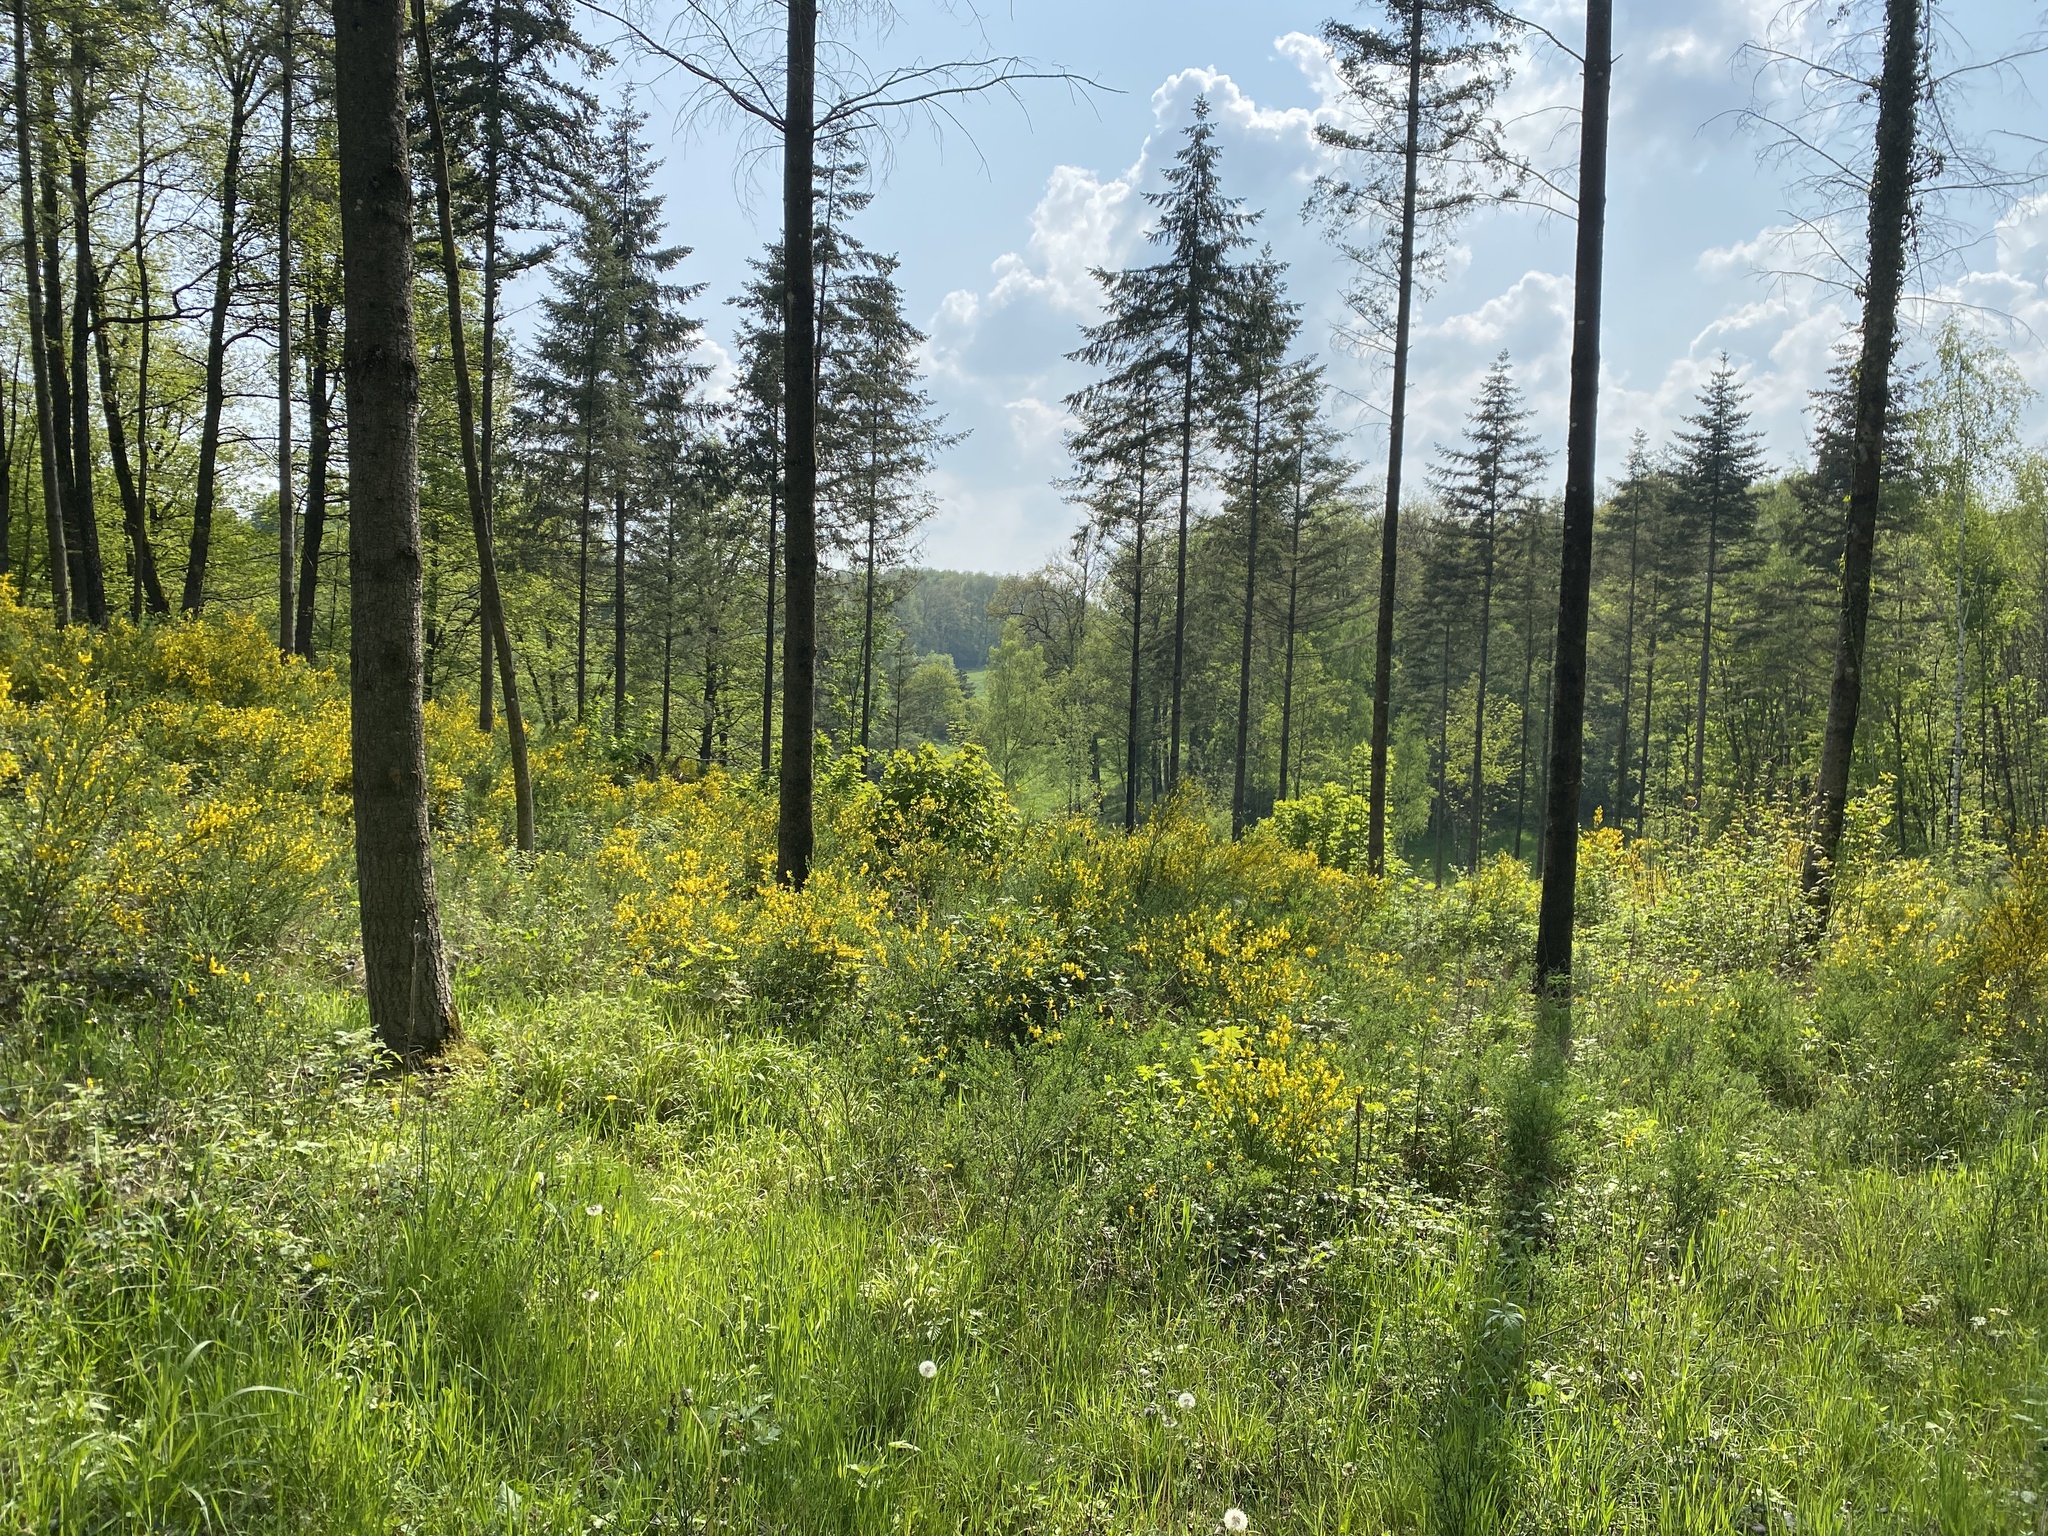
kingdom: Plantae
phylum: Tracheophyta
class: Magnoliopsida
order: Fabales
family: Fabaceae
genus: Cytisus
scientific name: Cytisus scoparius
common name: Scotch broom
